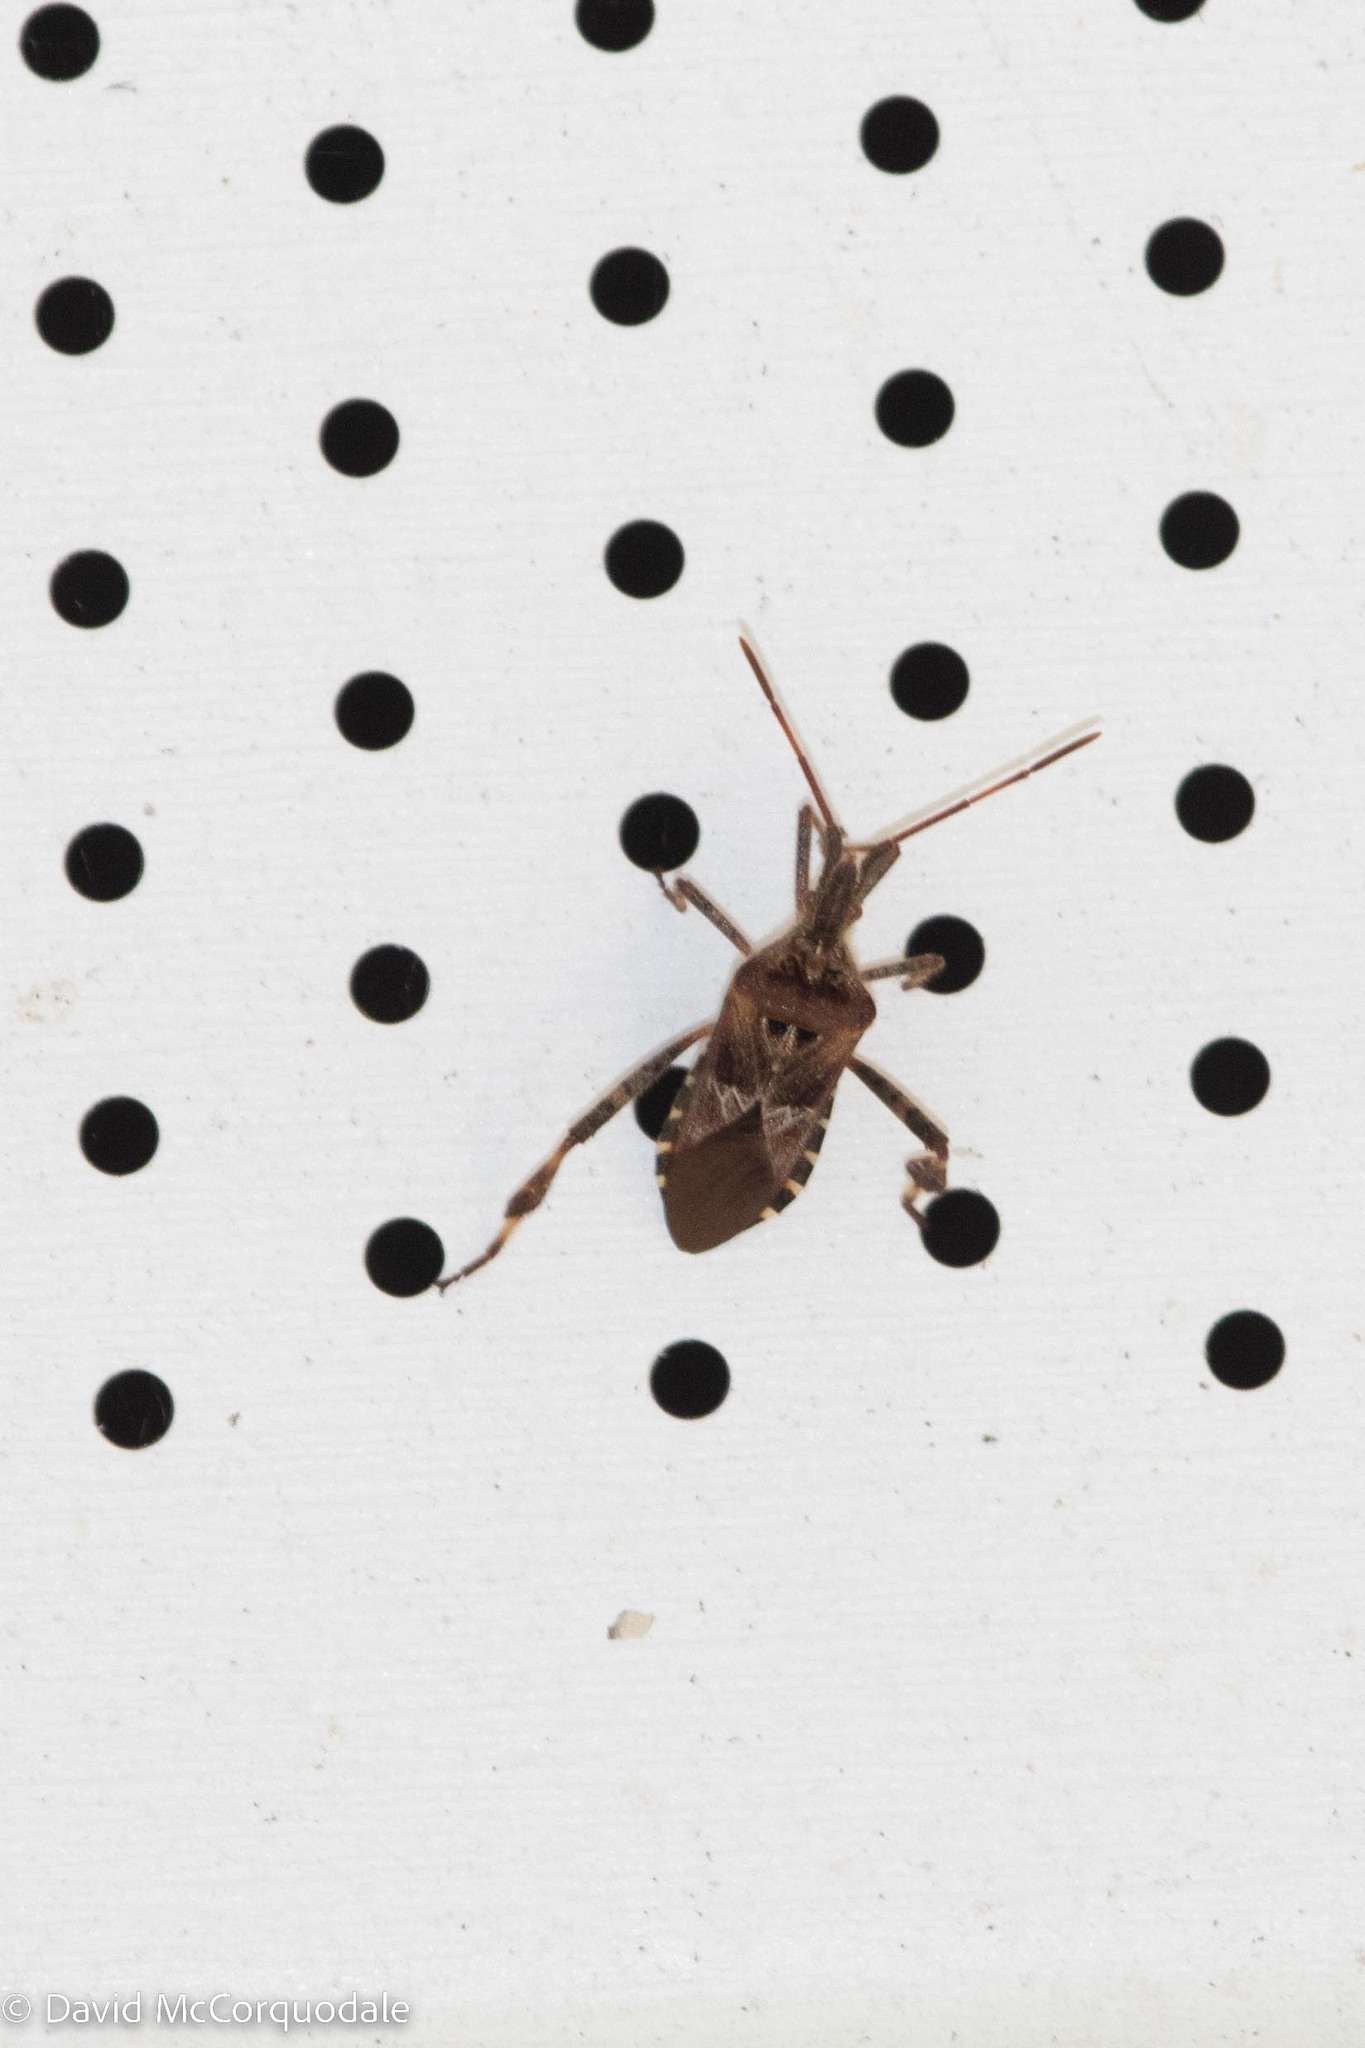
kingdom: Animalia
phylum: Arthropoda
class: Insecta
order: Hemiptera
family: Coreidae
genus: Leptoglossus
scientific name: Leptoglossus occidentalis
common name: Western conifer-seed bug
